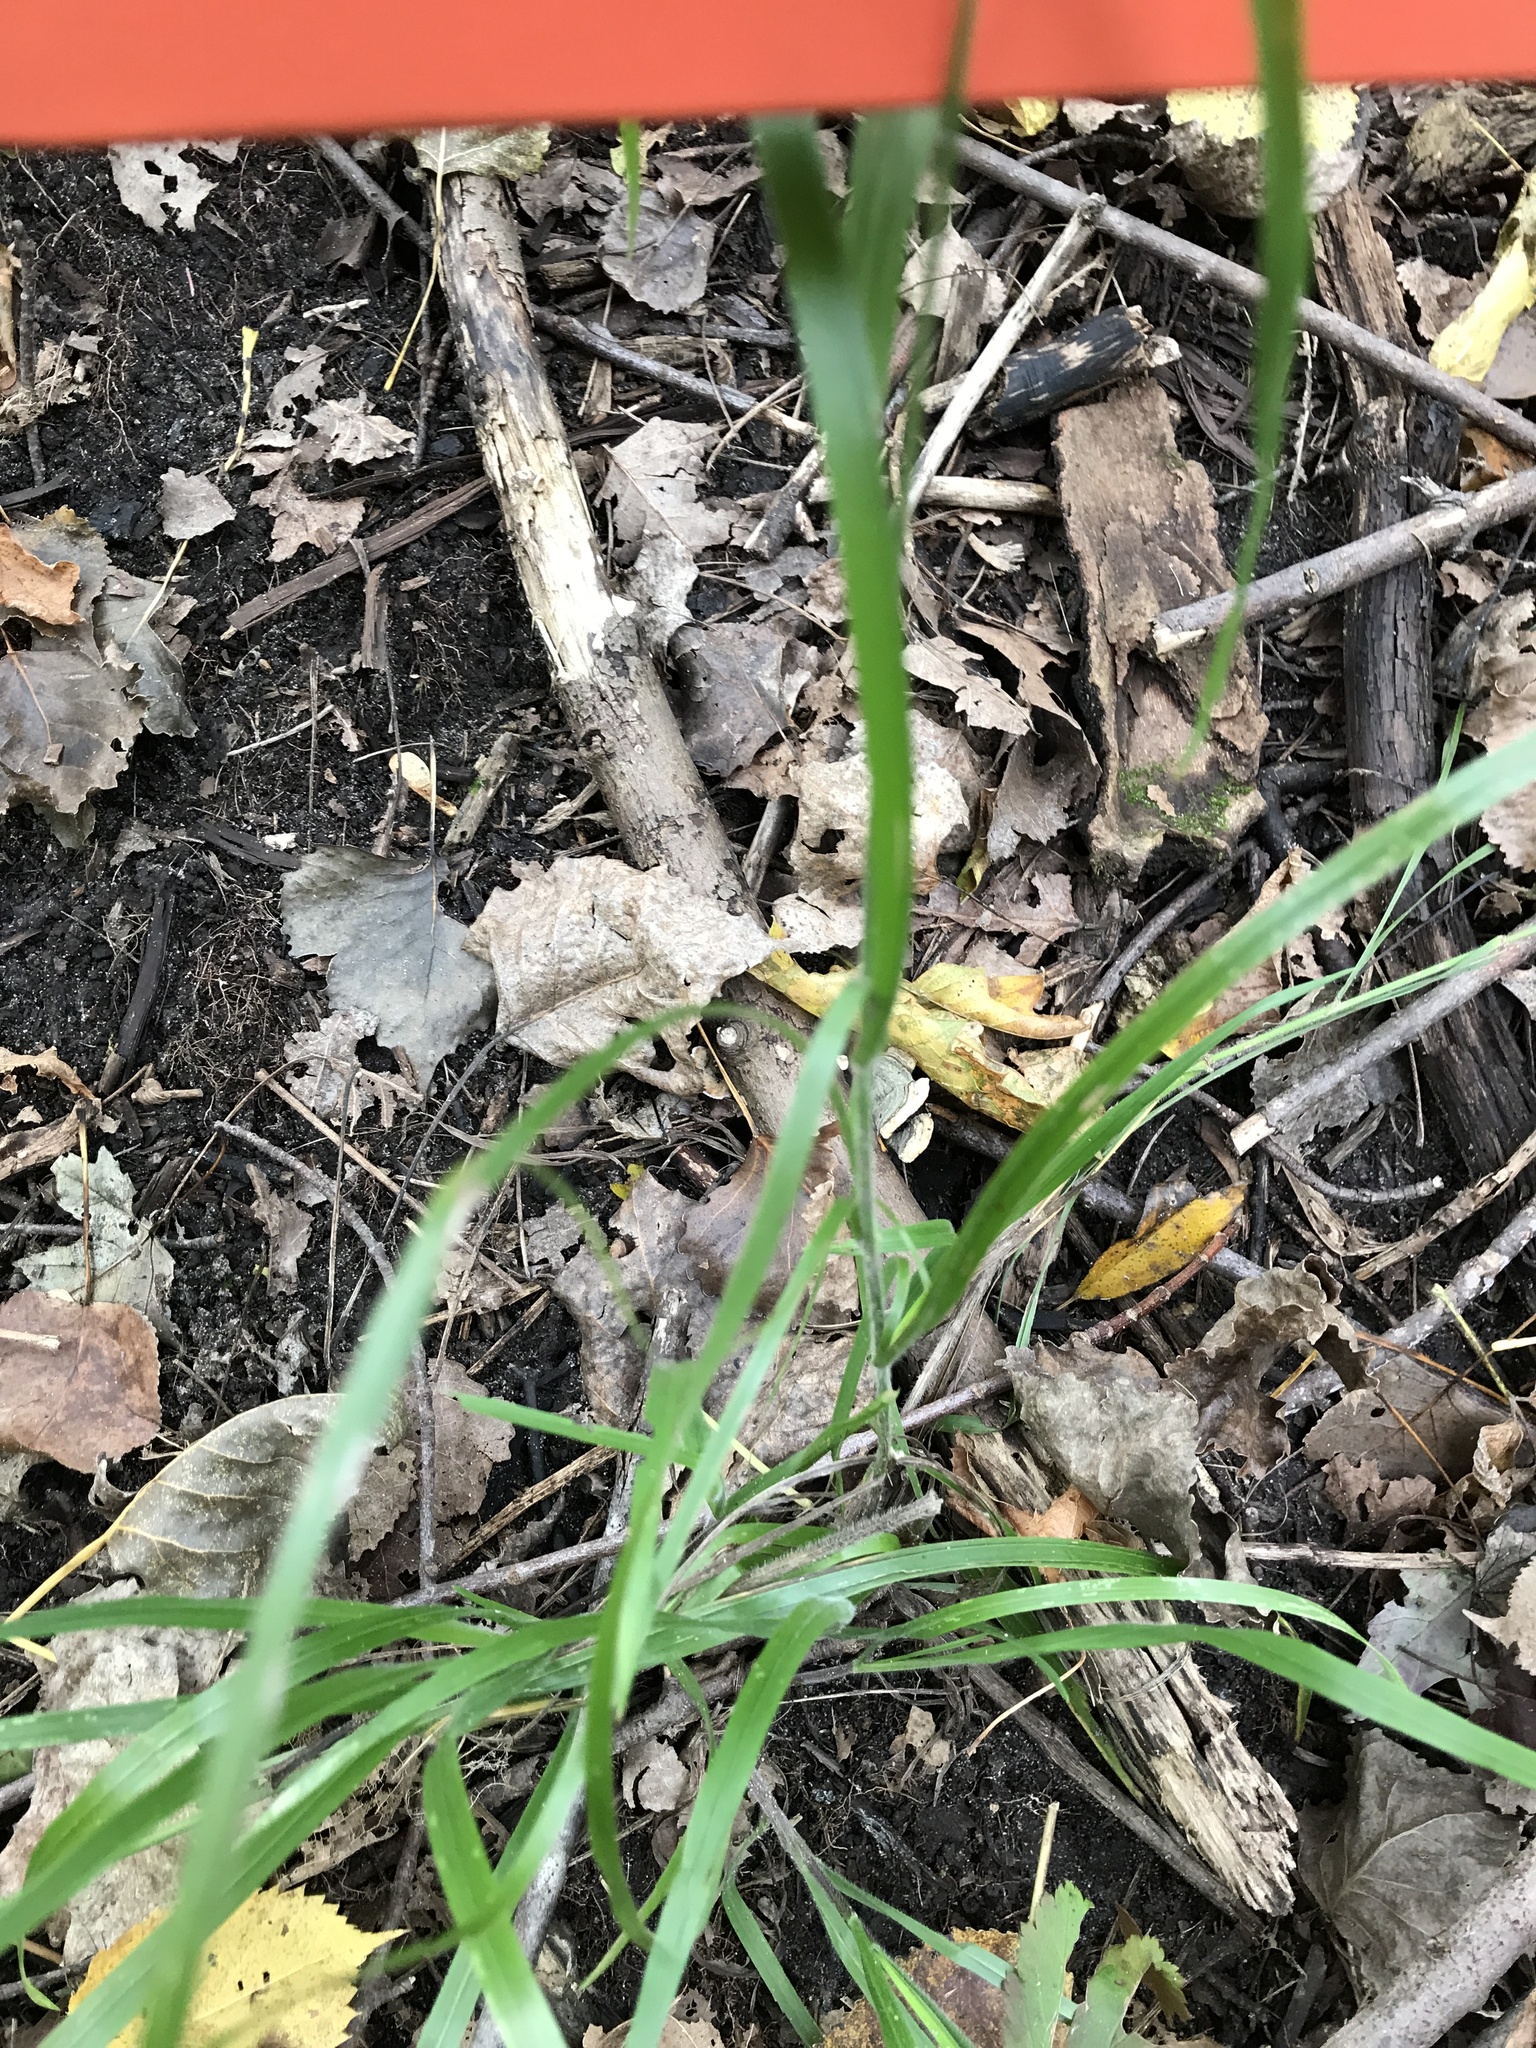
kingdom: Plantae
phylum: Tracheophyta
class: Liliopsida
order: Poales
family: Poaceae
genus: Cinna
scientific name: Cinna arundinacea
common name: Stout woodreed
